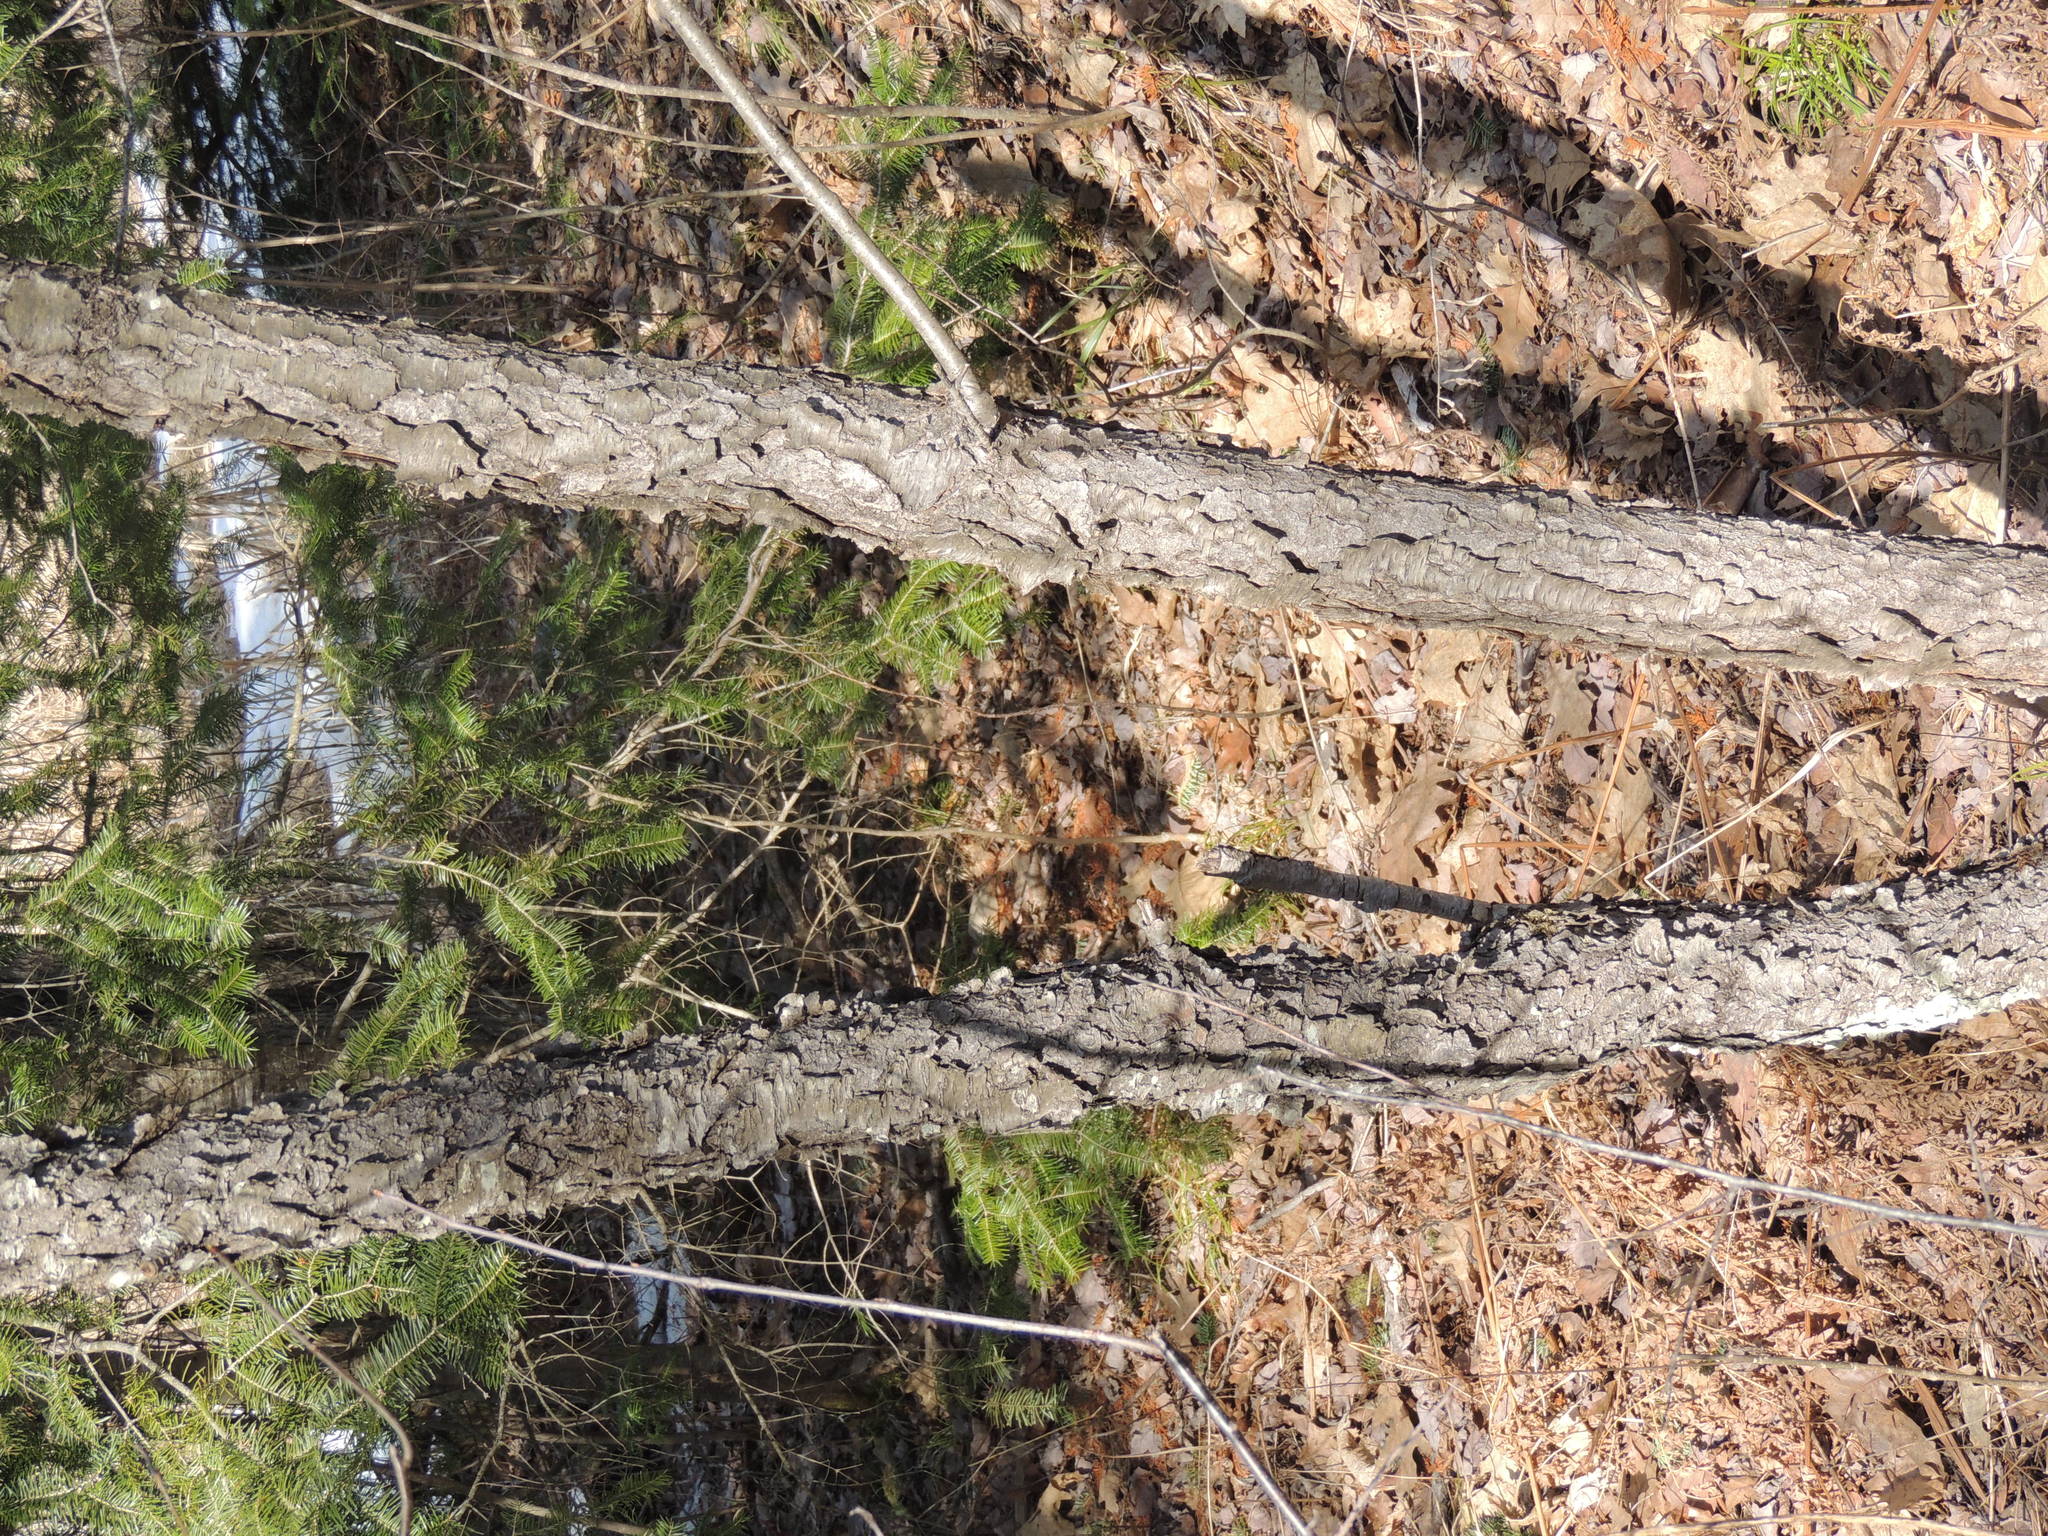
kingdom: Plantae
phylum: Tracheophyta
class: Magnoliopsida
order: Rosales
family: Rosaceae
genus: Prunus
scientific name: Prunus serotina
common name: Black cherry
